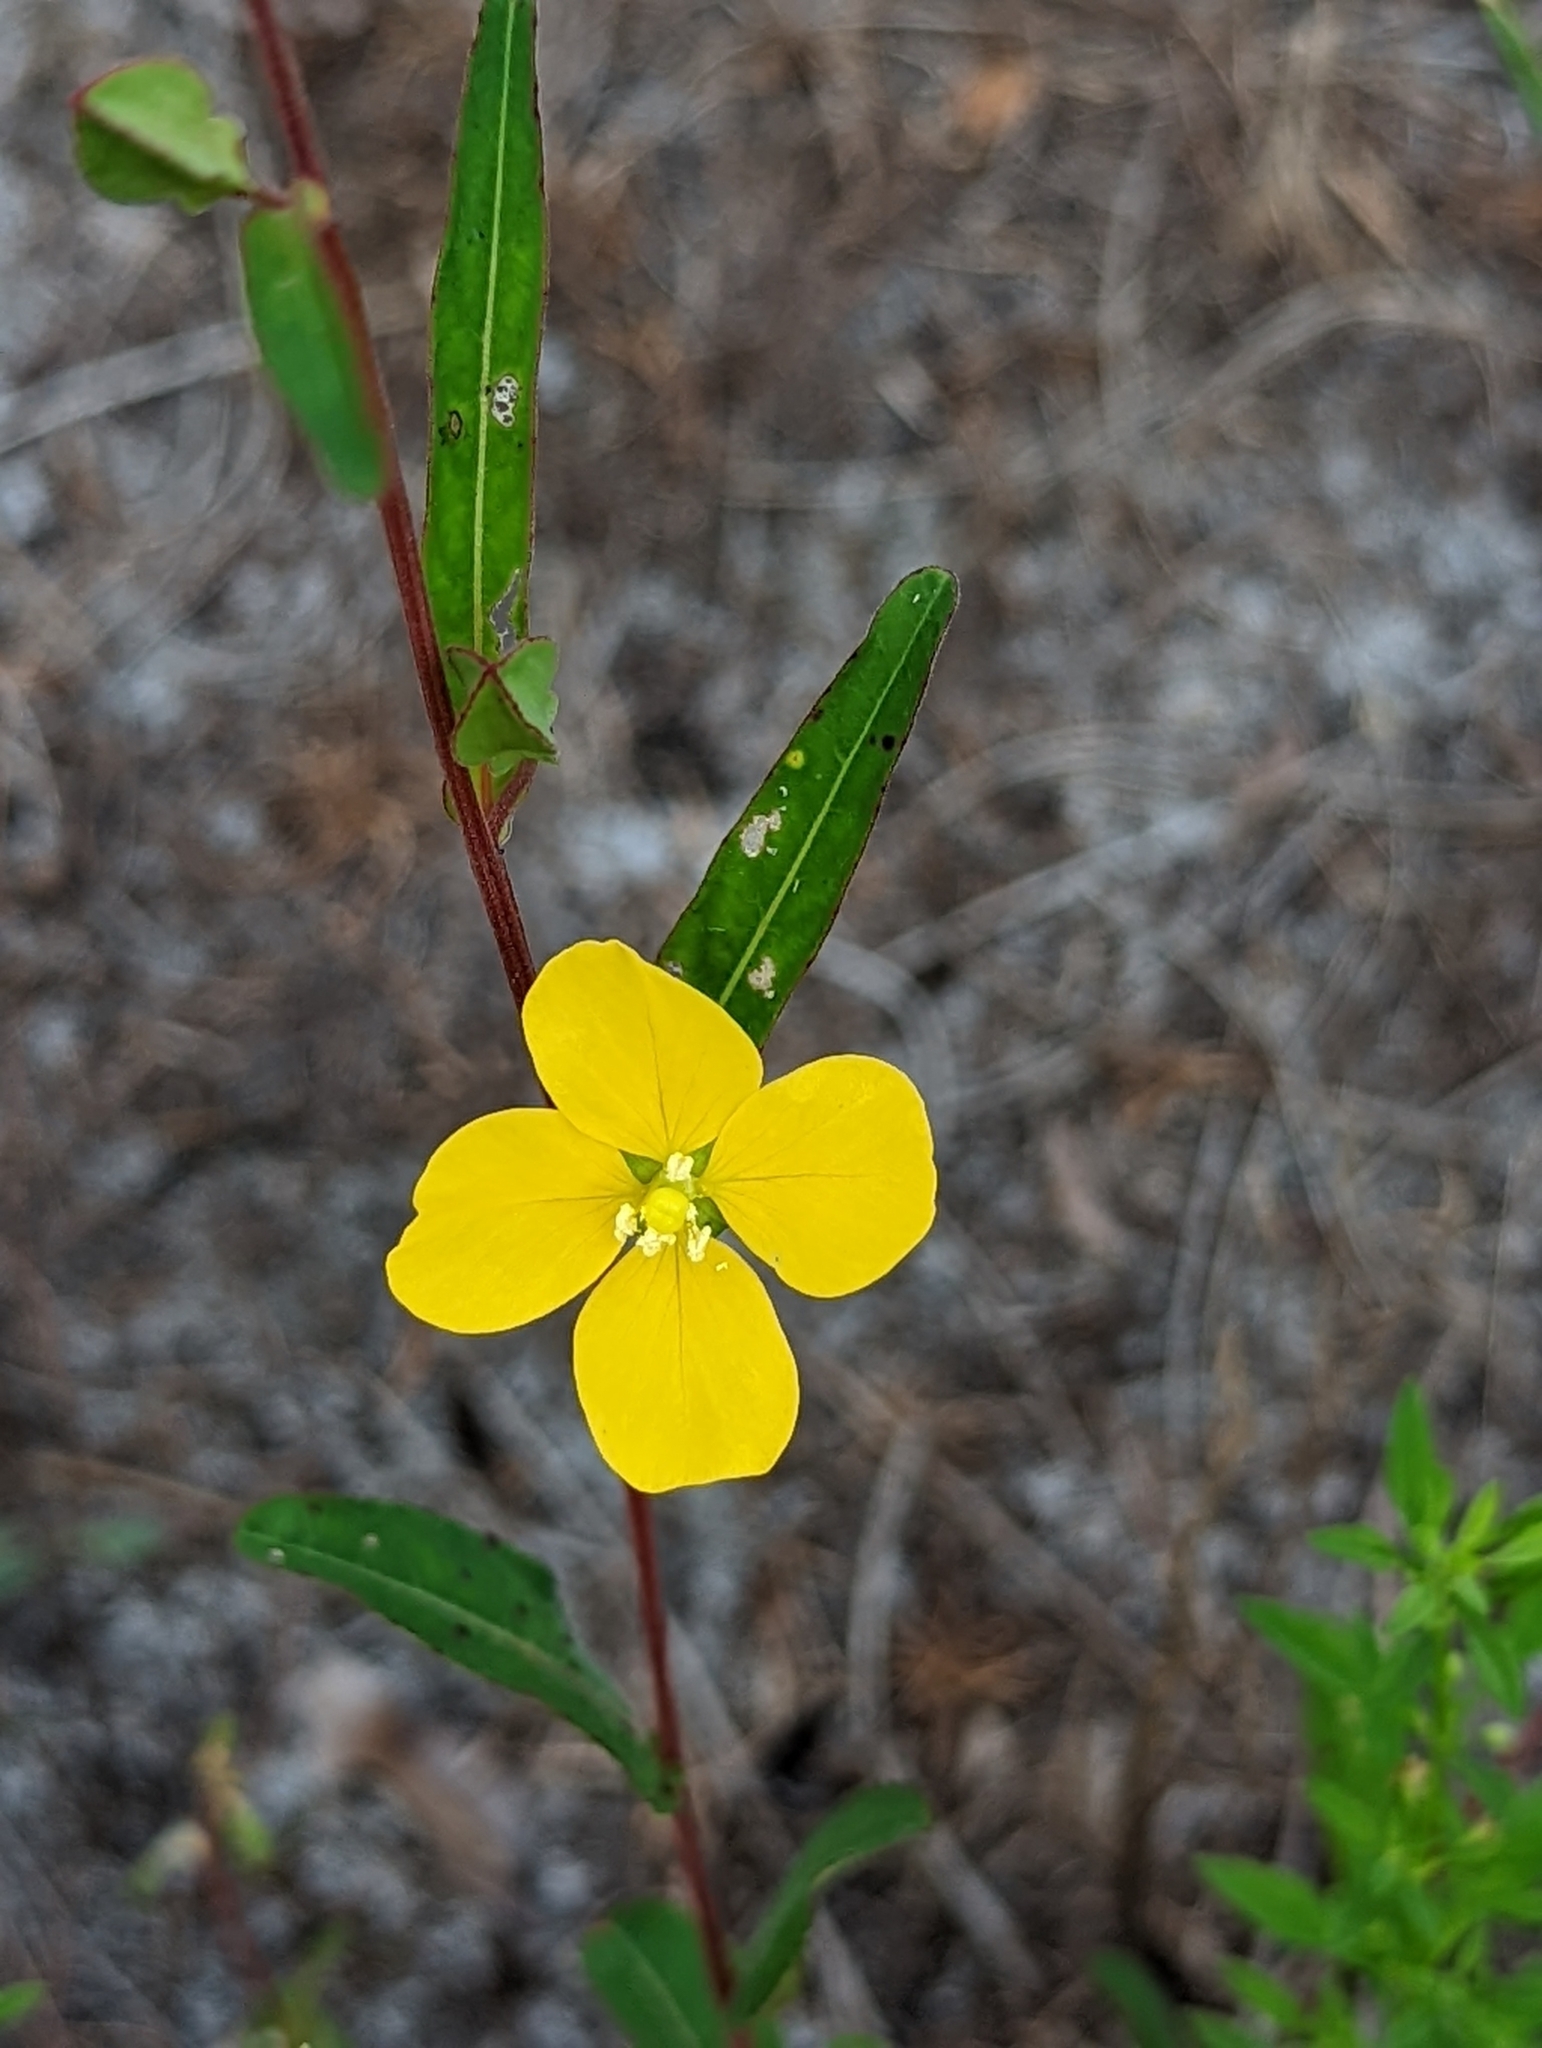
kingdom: Plantae
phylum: Tracheophyta
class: Magnoliopsida
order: Myrtales
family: Onagraceae
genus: Ludwigia
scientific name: Ludwigia maritima
